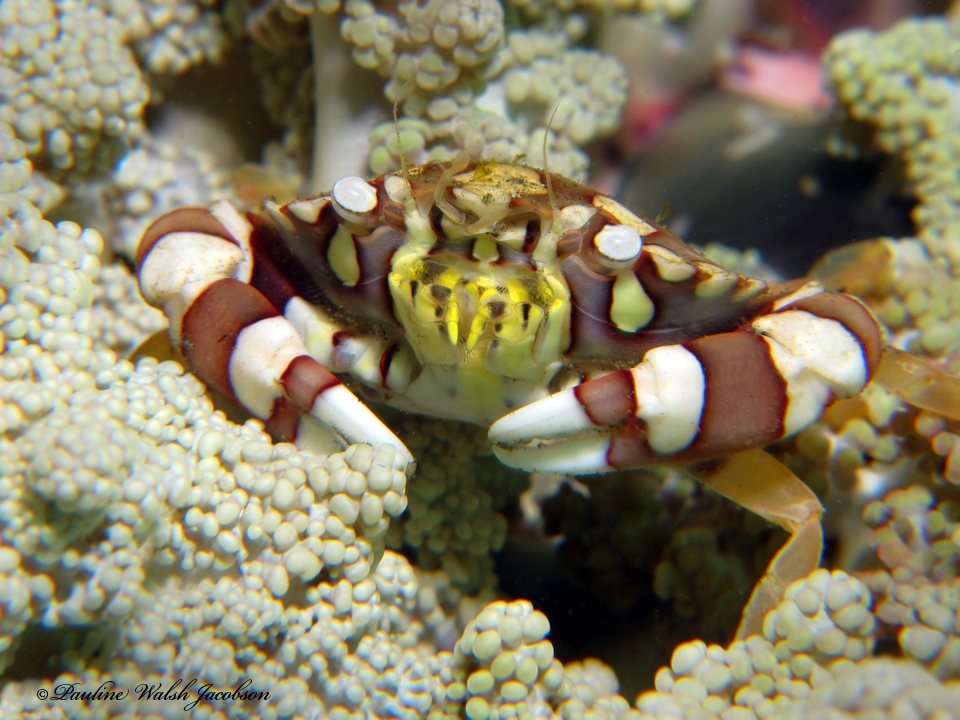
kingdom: Animalia
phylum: Arthropoda
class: Malacostraca
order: Decapoda
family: Portunidae
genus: Lissocarcinus
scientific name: Lissocarcinus laevis
